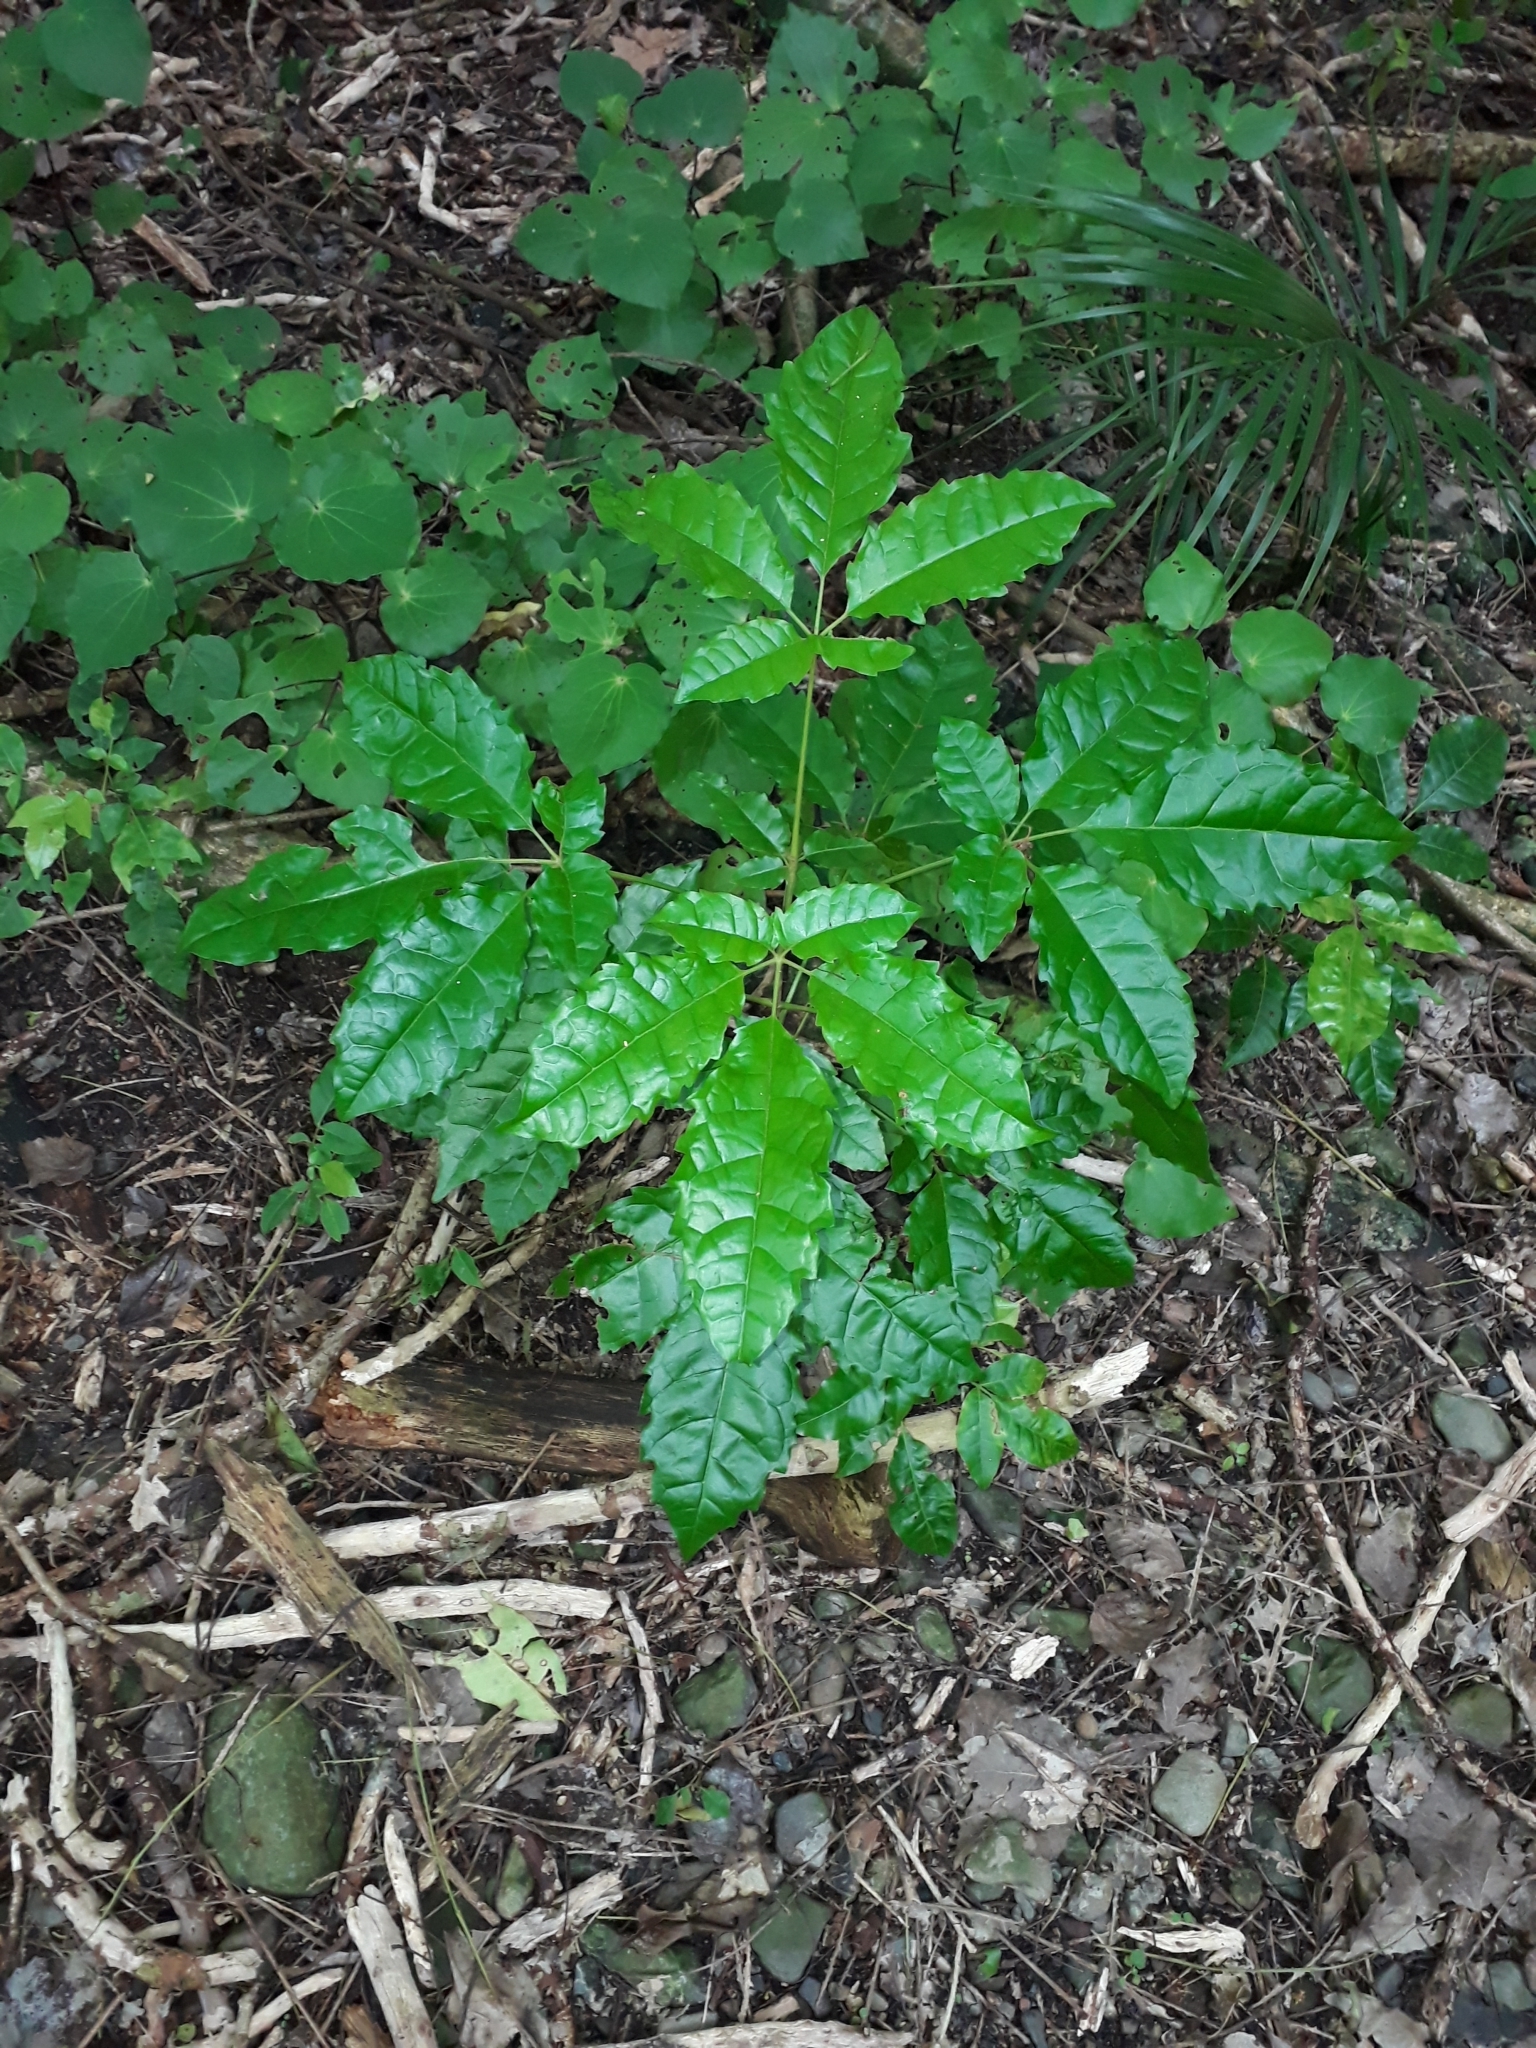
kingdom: Plantae
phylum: Tracheophyta
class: Magnoliopsida
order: Lamiales
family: Lamiaceae
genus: Vitex
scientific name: Vitex lucens
